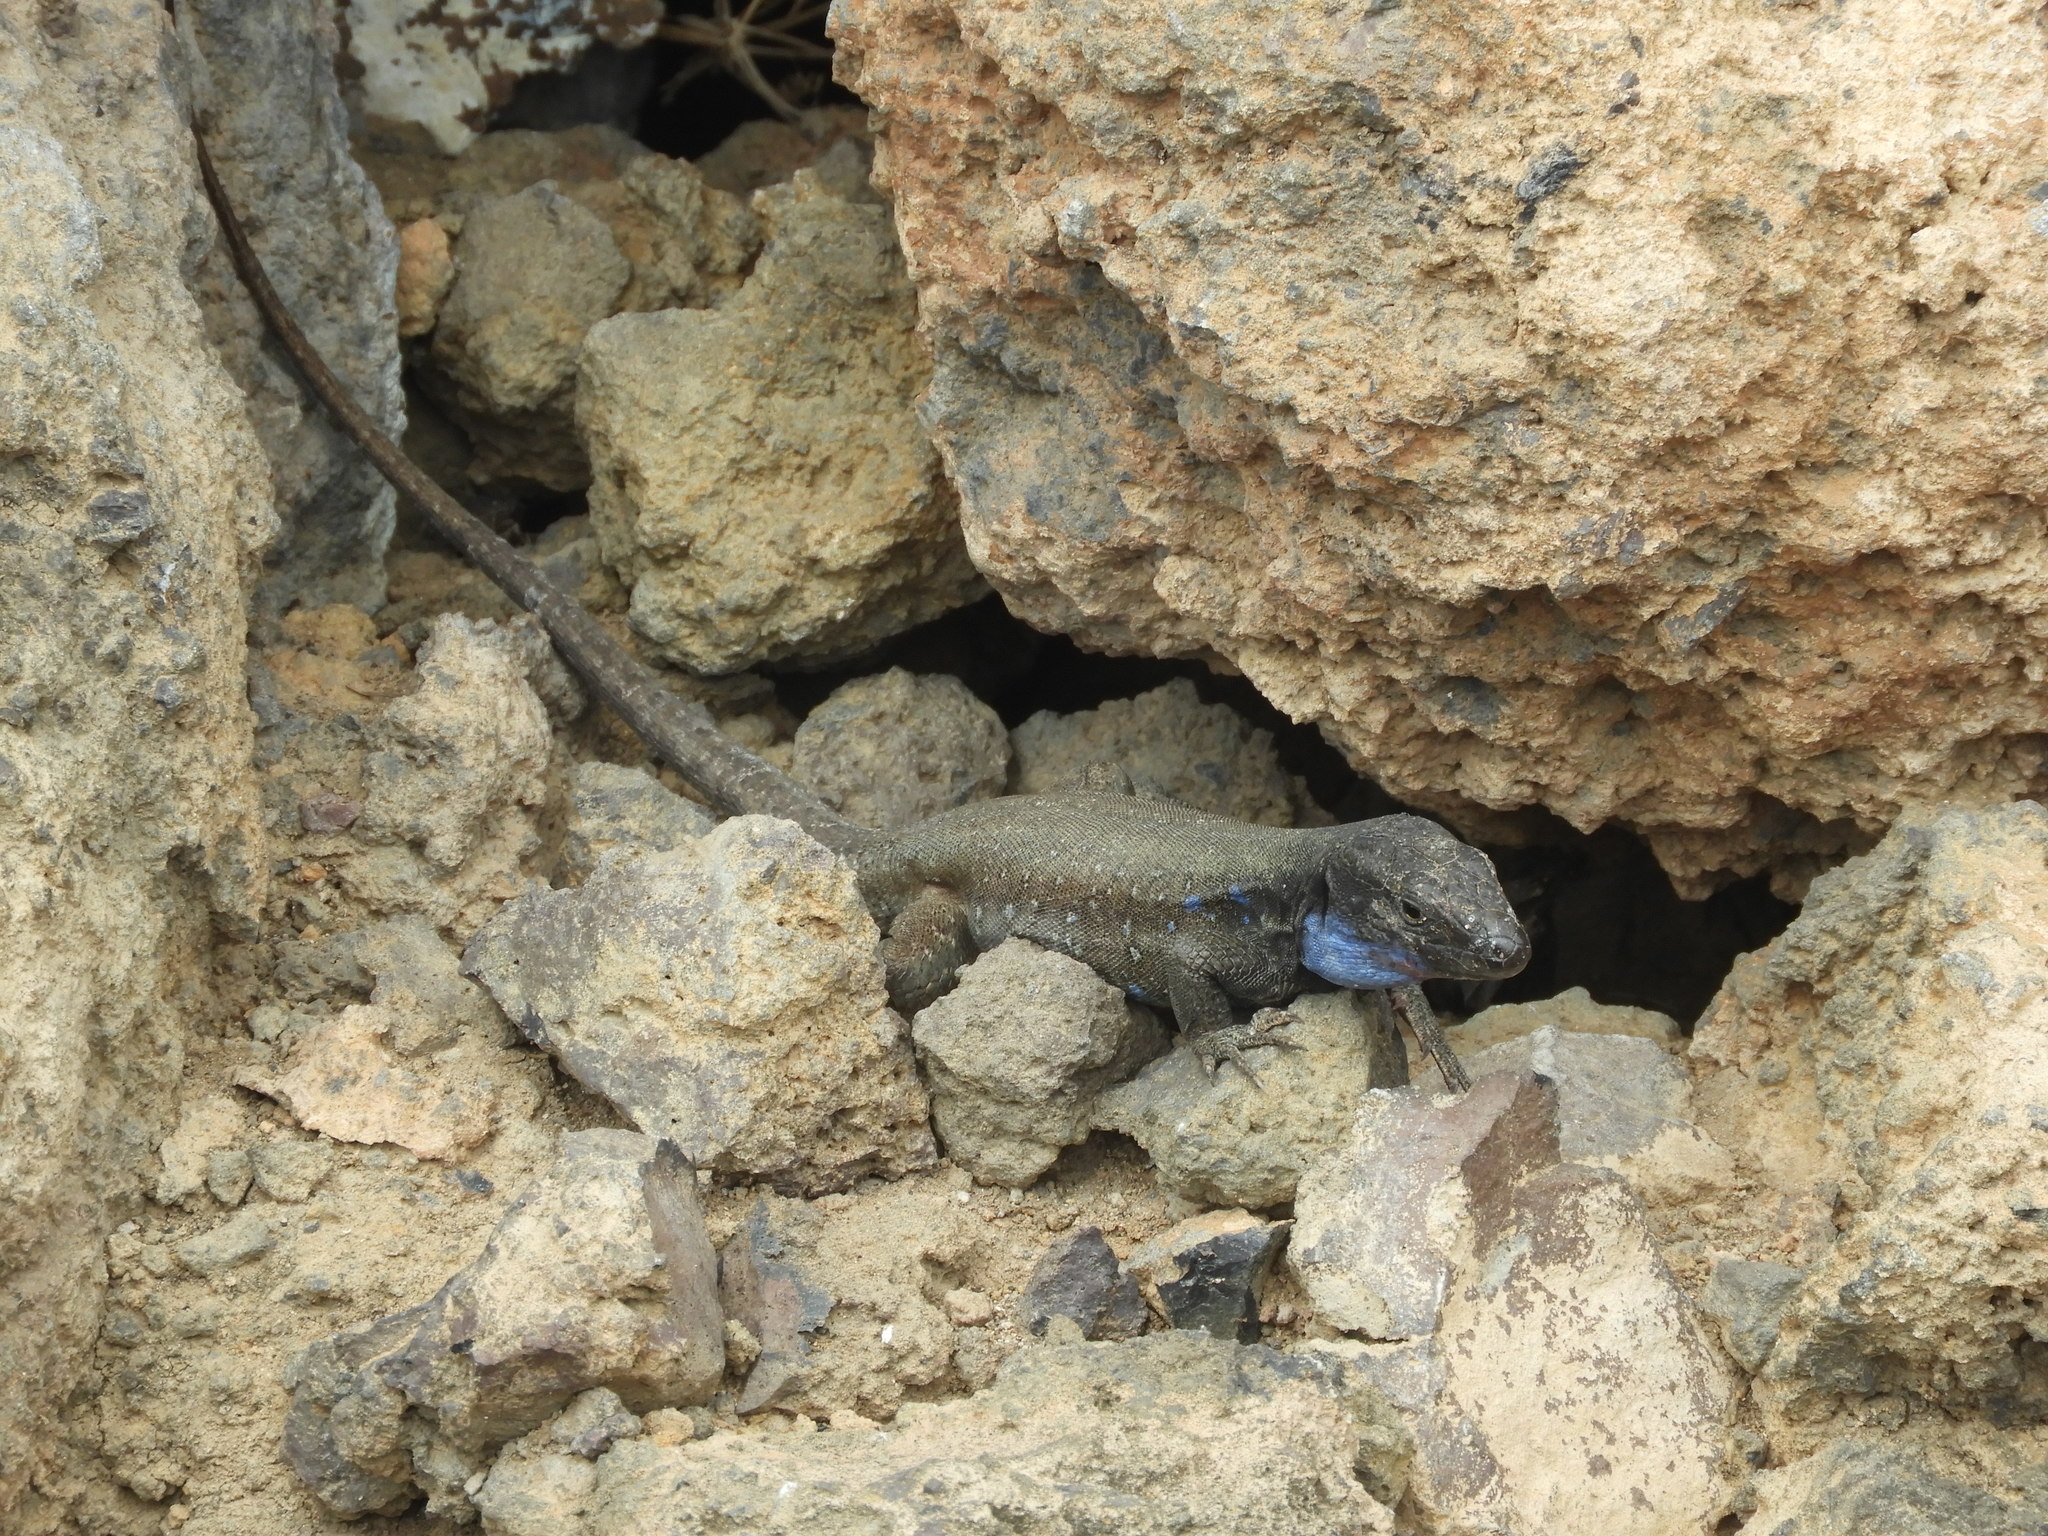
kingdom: Animalia
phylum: Chordata
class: Squamata
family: Lacertidae
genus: Gallotia
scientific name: Gallotia galloti
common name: Gallot's lizard
